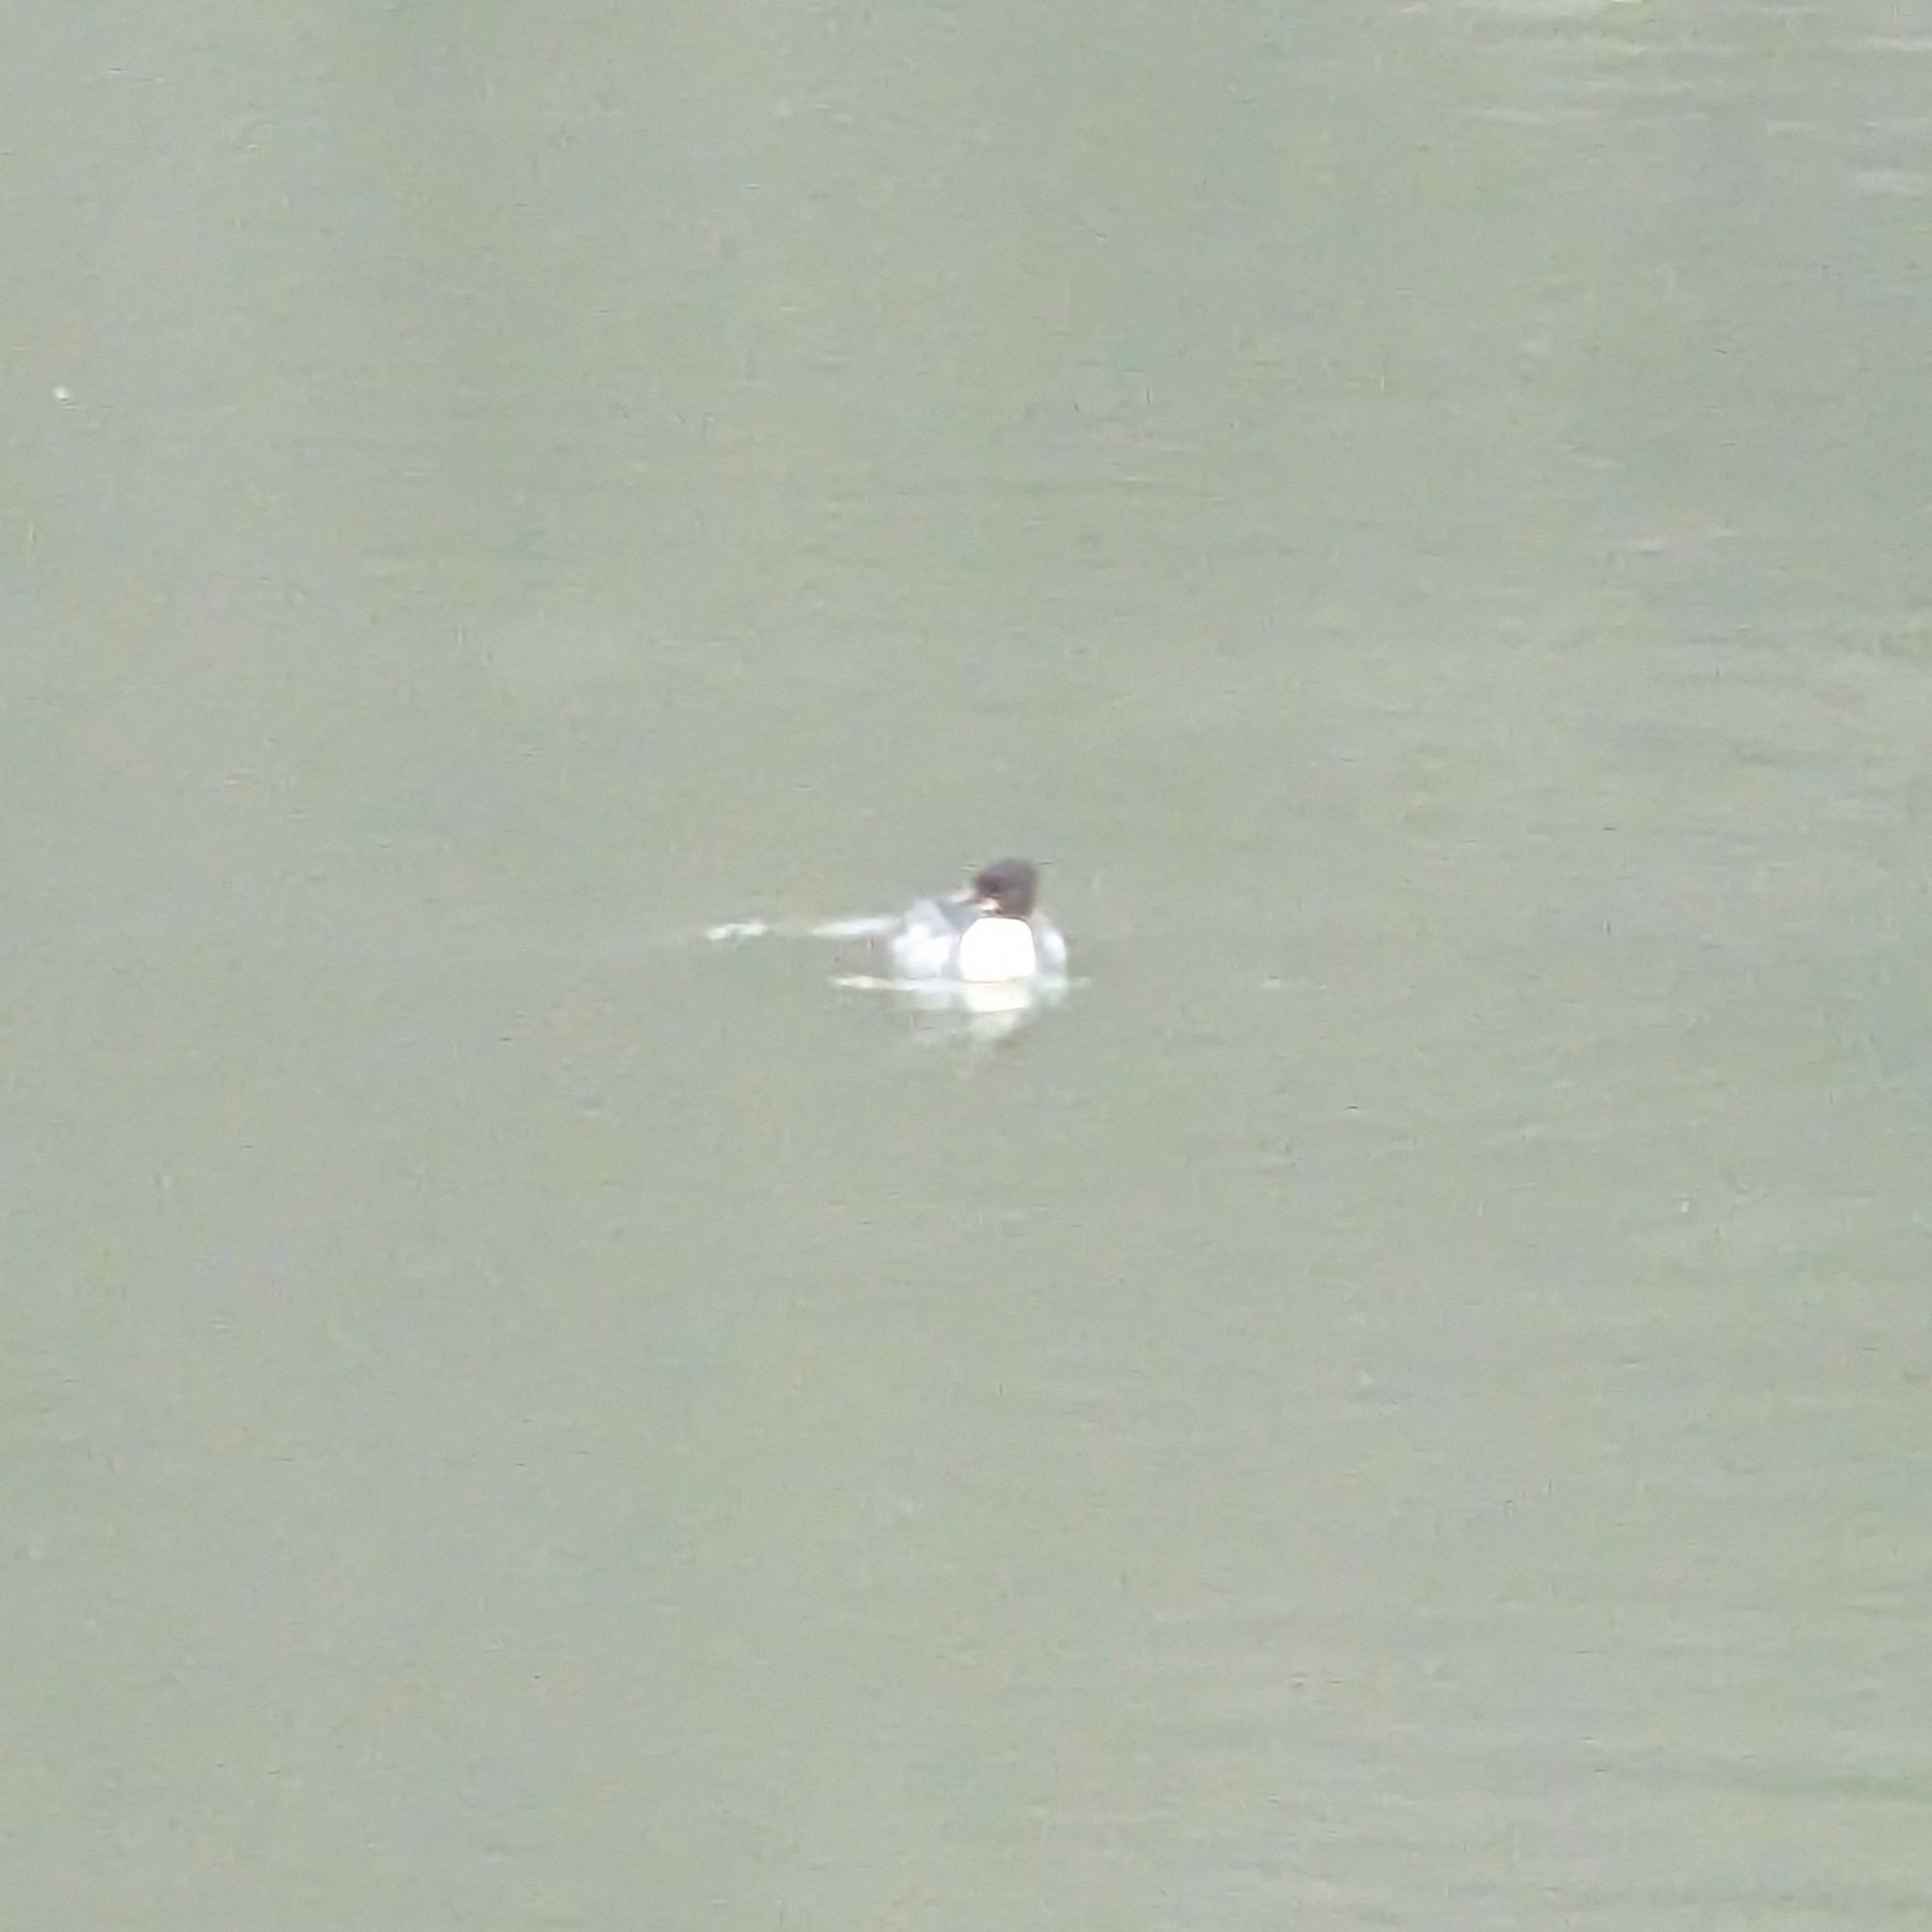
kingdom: Animalia
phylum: Chordata
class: Aves
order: Anseriformes
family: Anatidae
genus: Mergus
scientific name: Mergus merganser
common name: Common merganser
